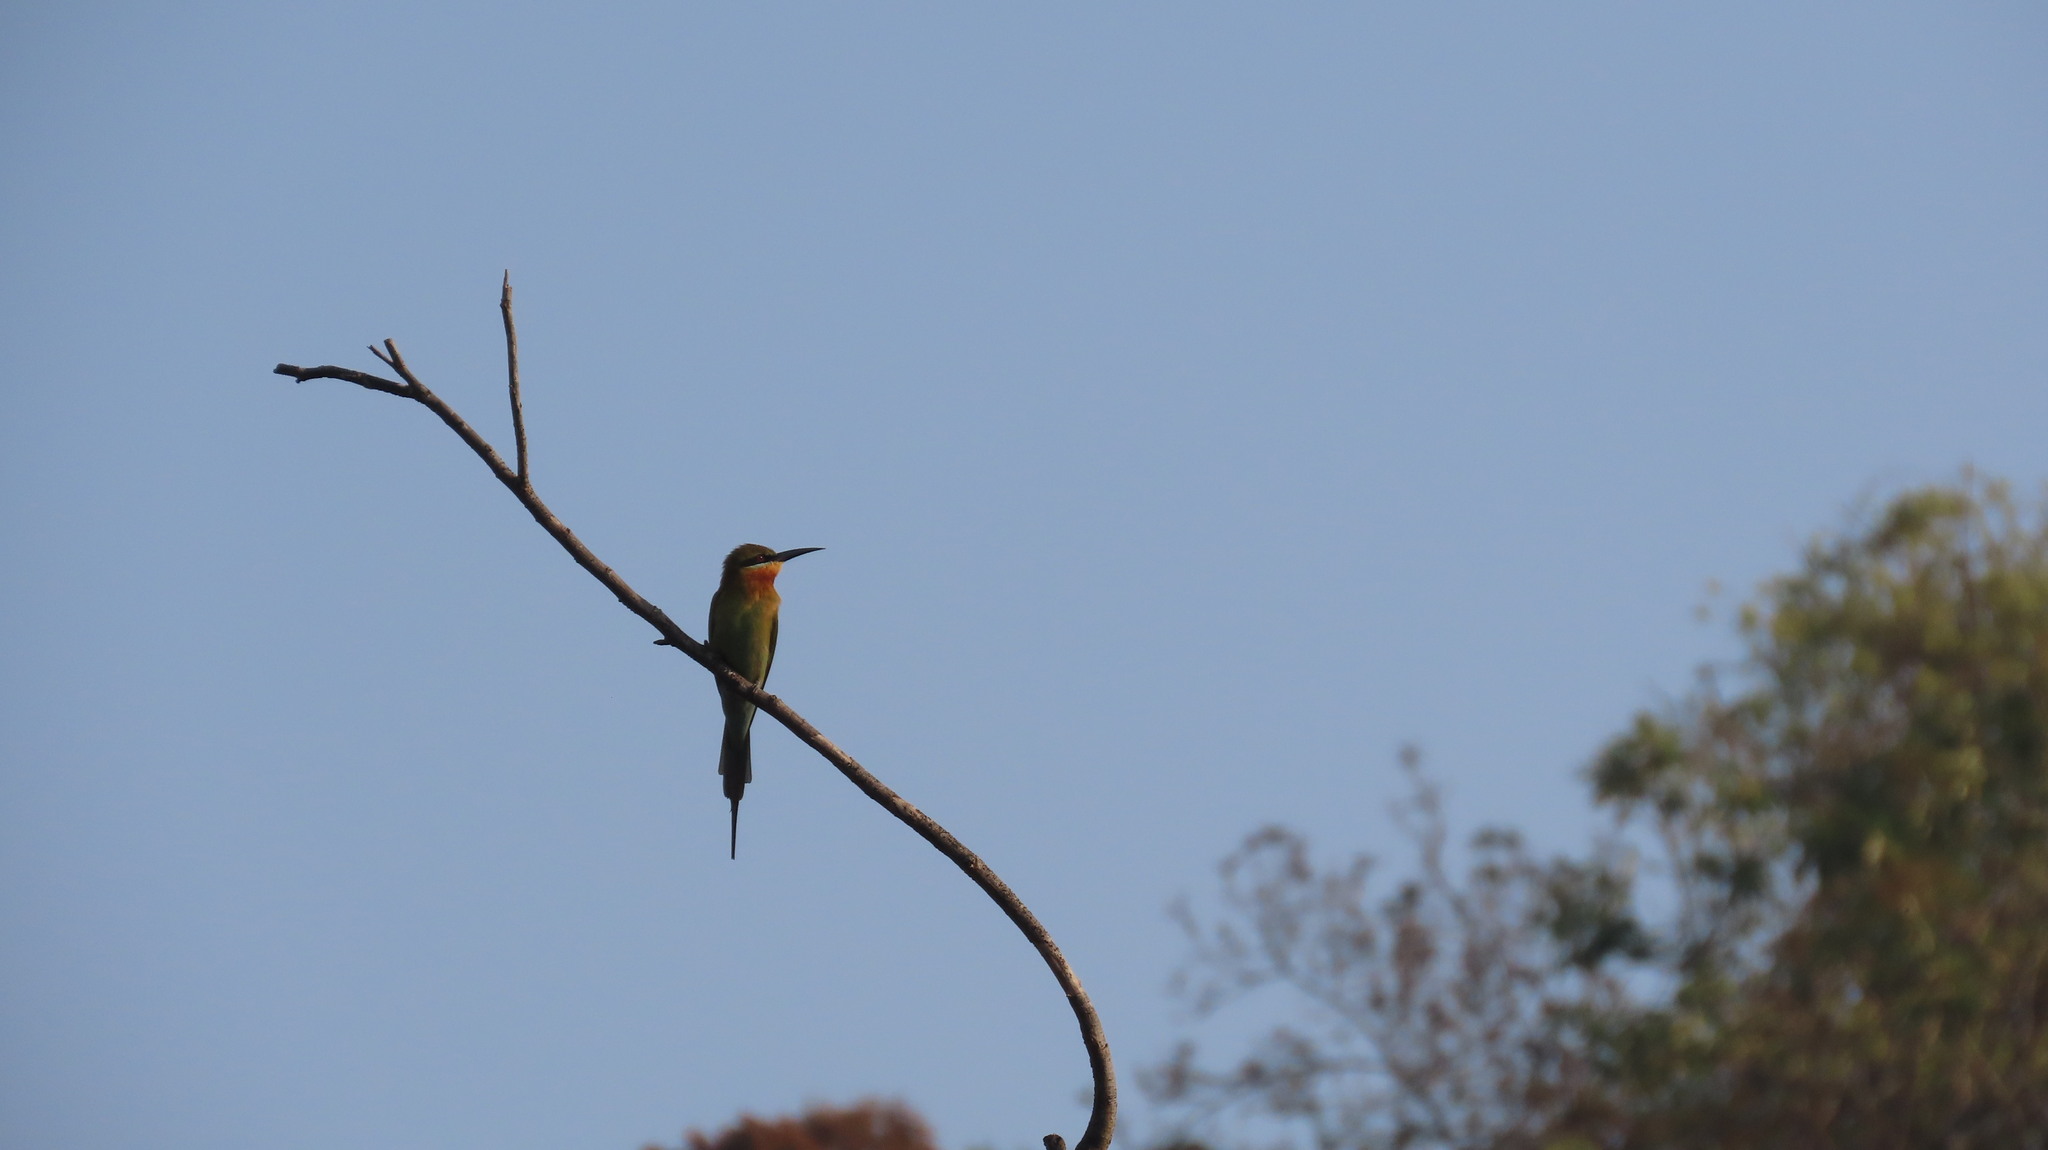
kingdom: Animalia
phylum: Chordata
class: Aves
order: Coraciiformes
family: Meropidae
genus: Merops
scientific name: Merops philippinus
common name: Blue-tailed bee-eater
